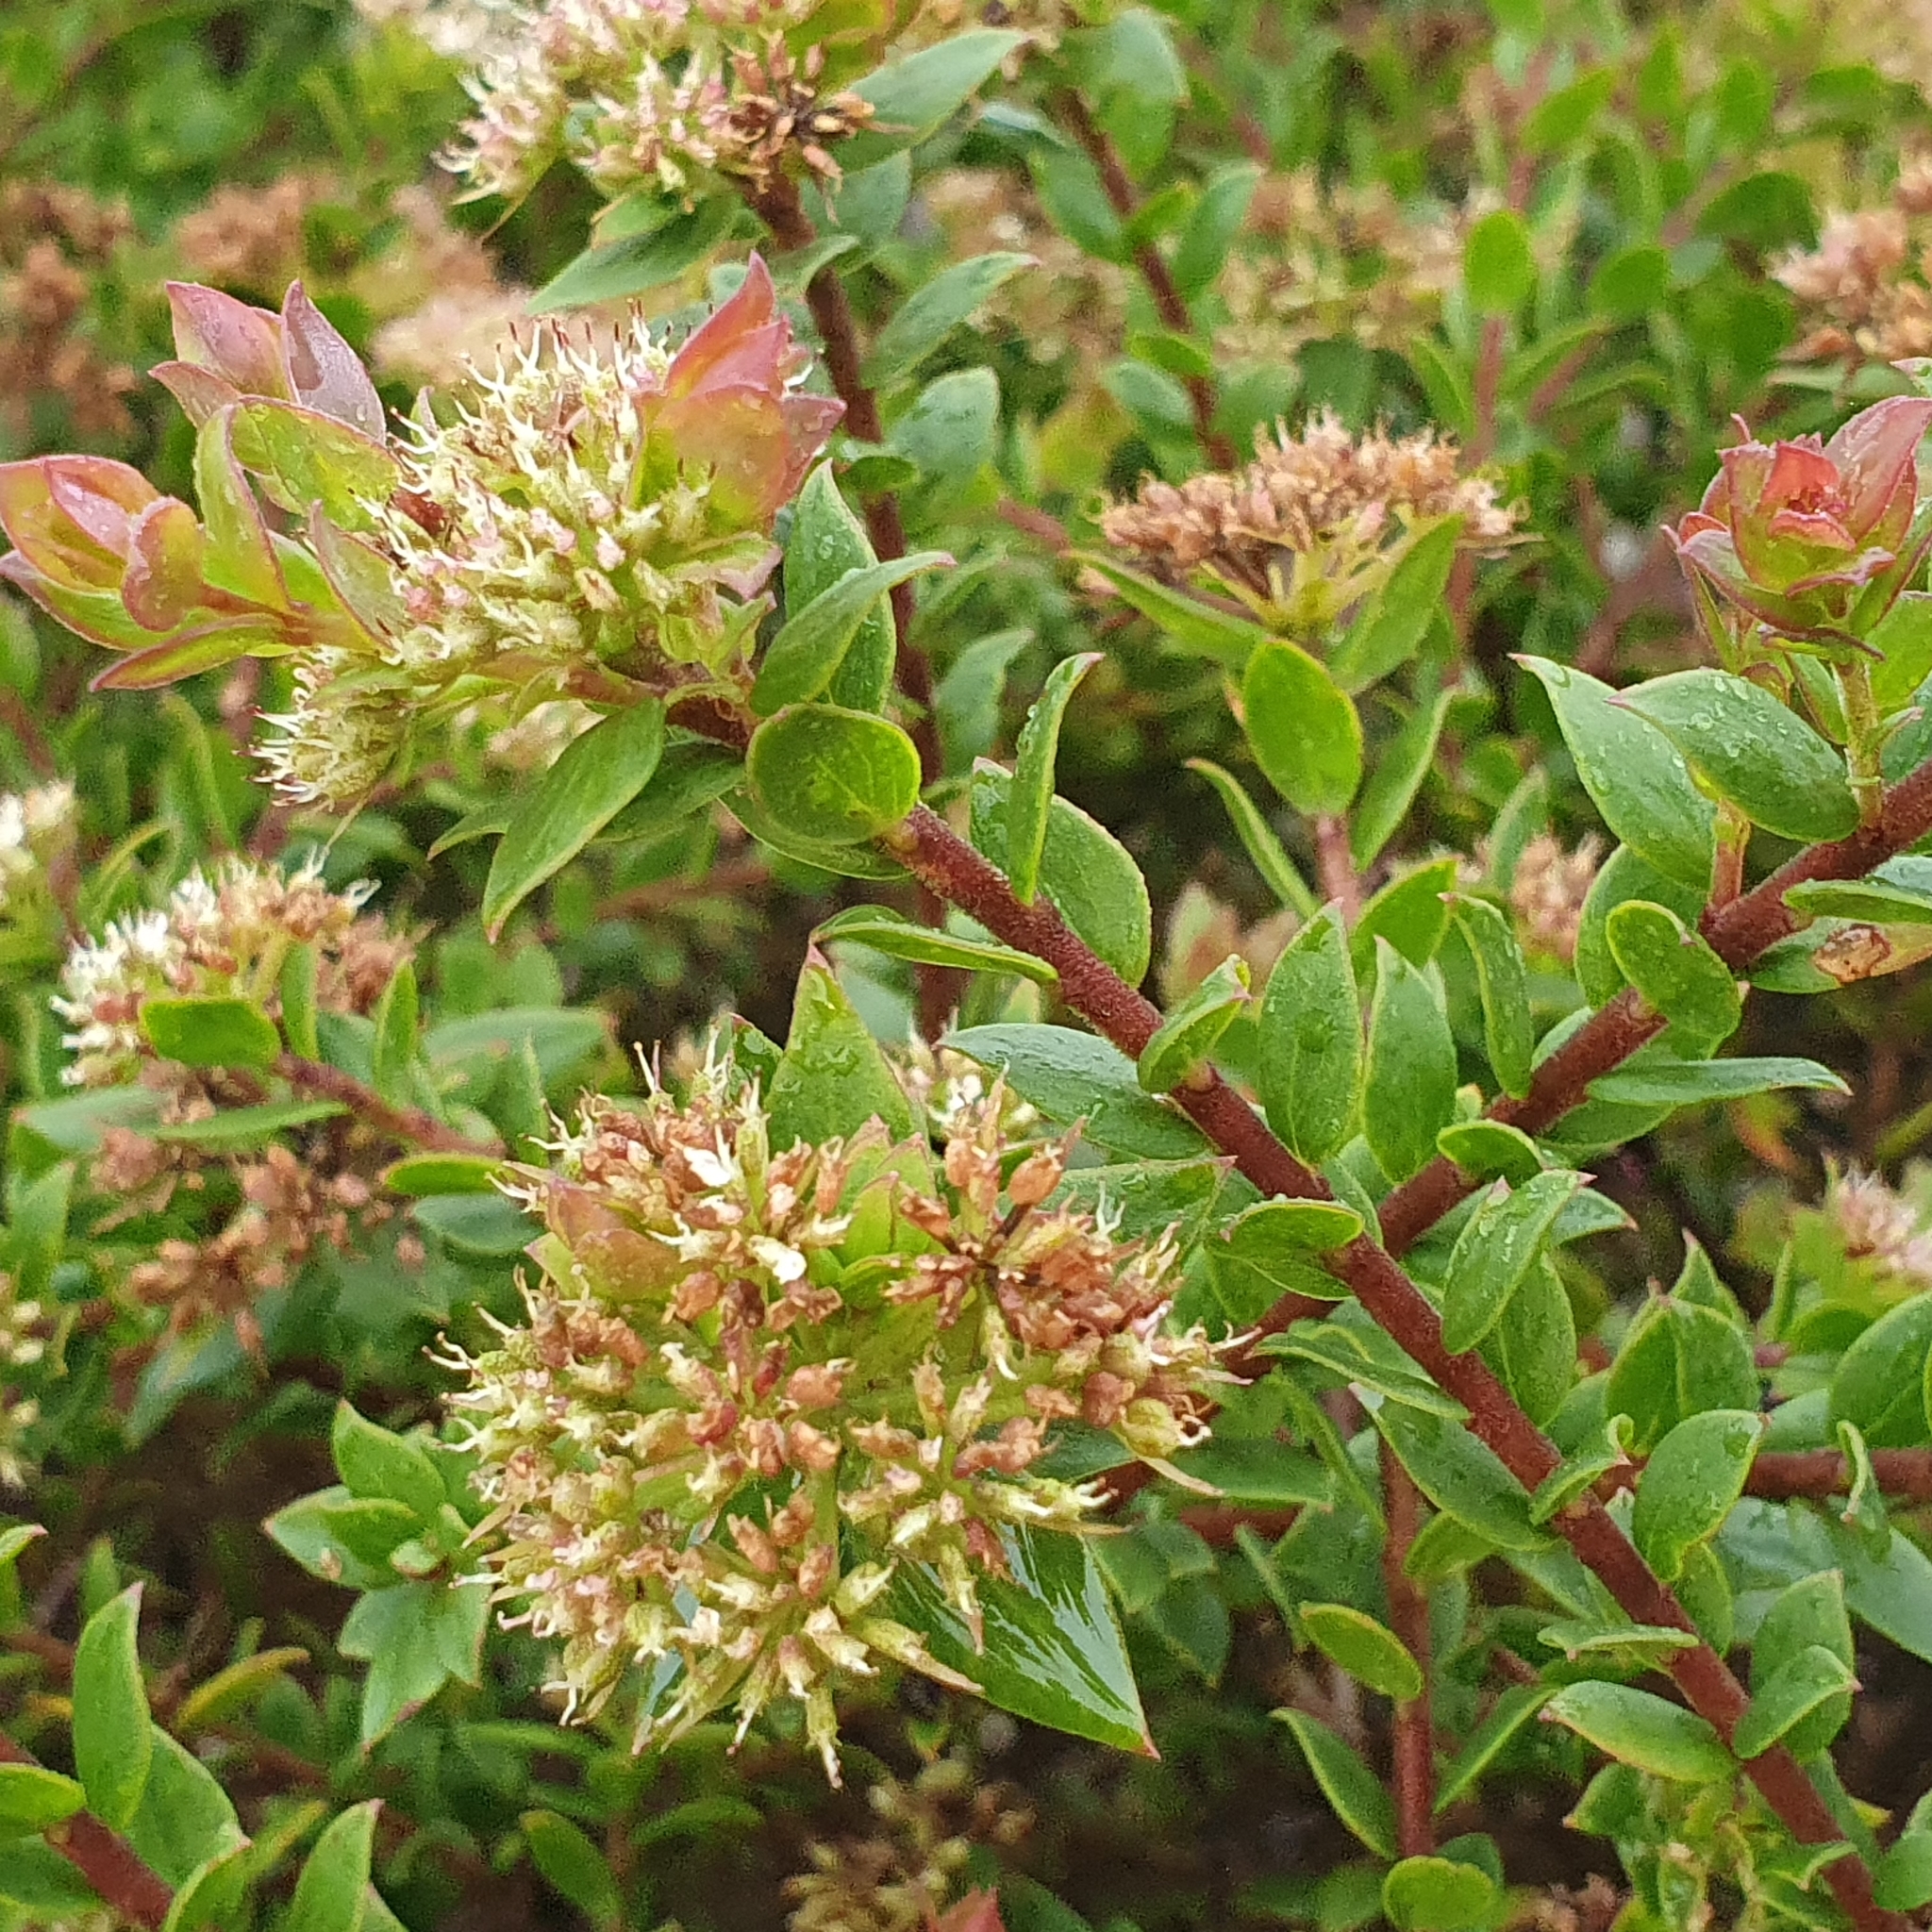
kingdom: Plantae
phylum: Tracheophyta
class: Magnoliopsida
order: Apiales
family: Apiaceae
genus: Platysace
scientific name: Platysace lanceolata
